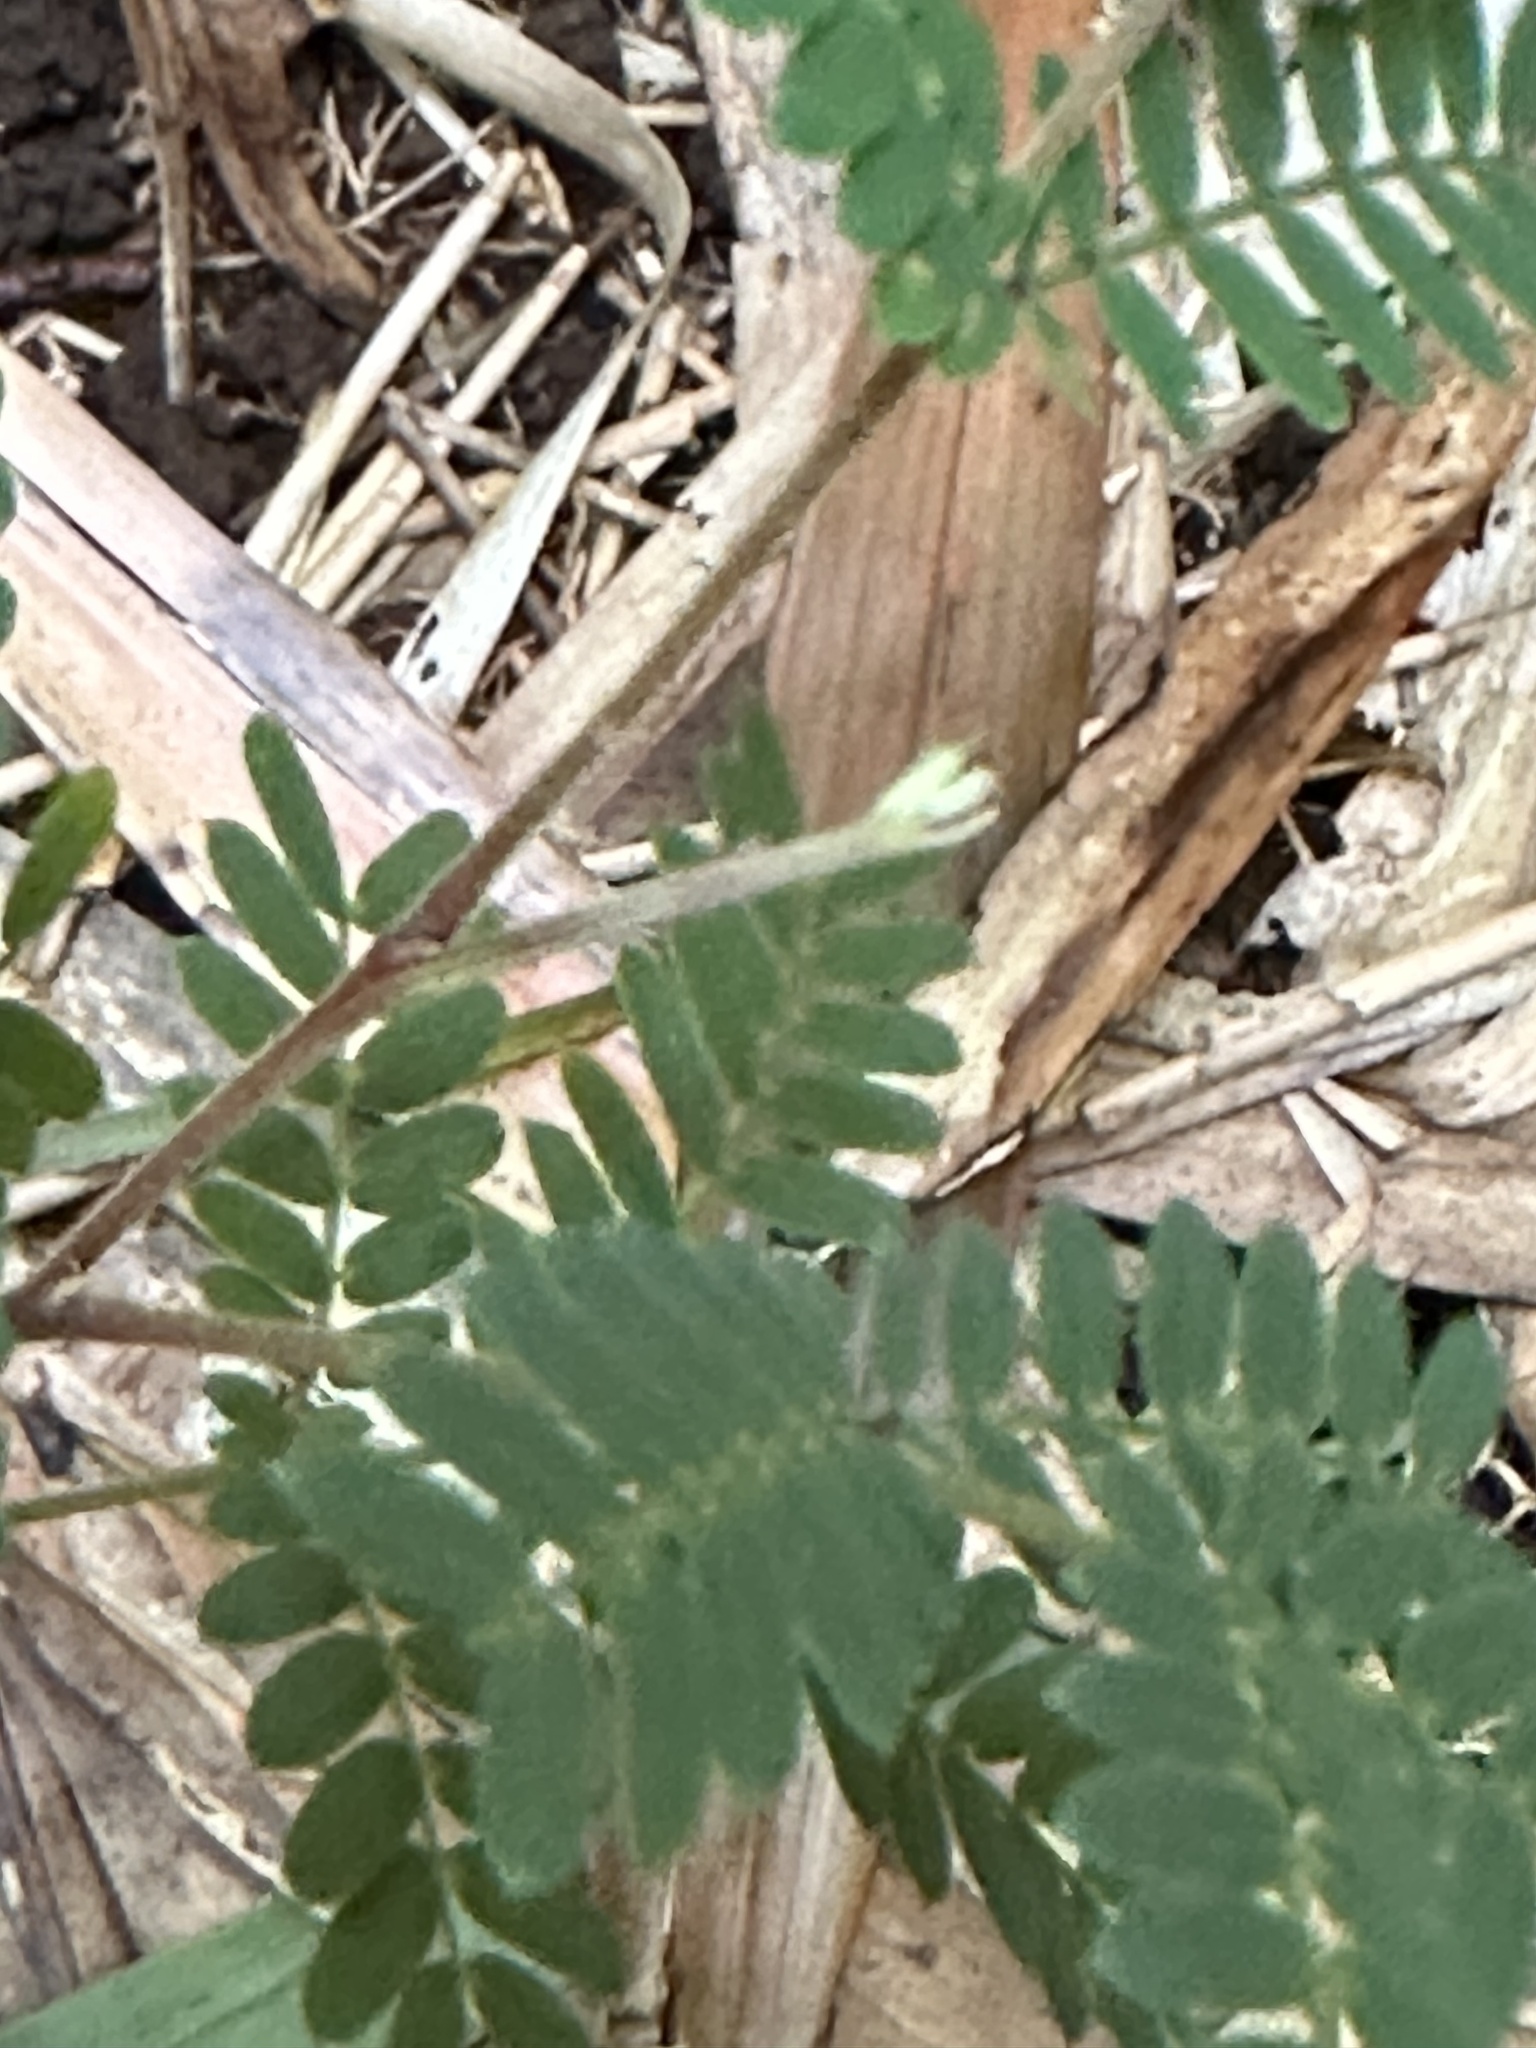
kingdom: Plantae
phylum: Tracheophyta
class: Magnoliopsida
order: Fabales
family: Fabaceae
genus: Acacia
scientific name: Acacia koa
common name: Gray koa
